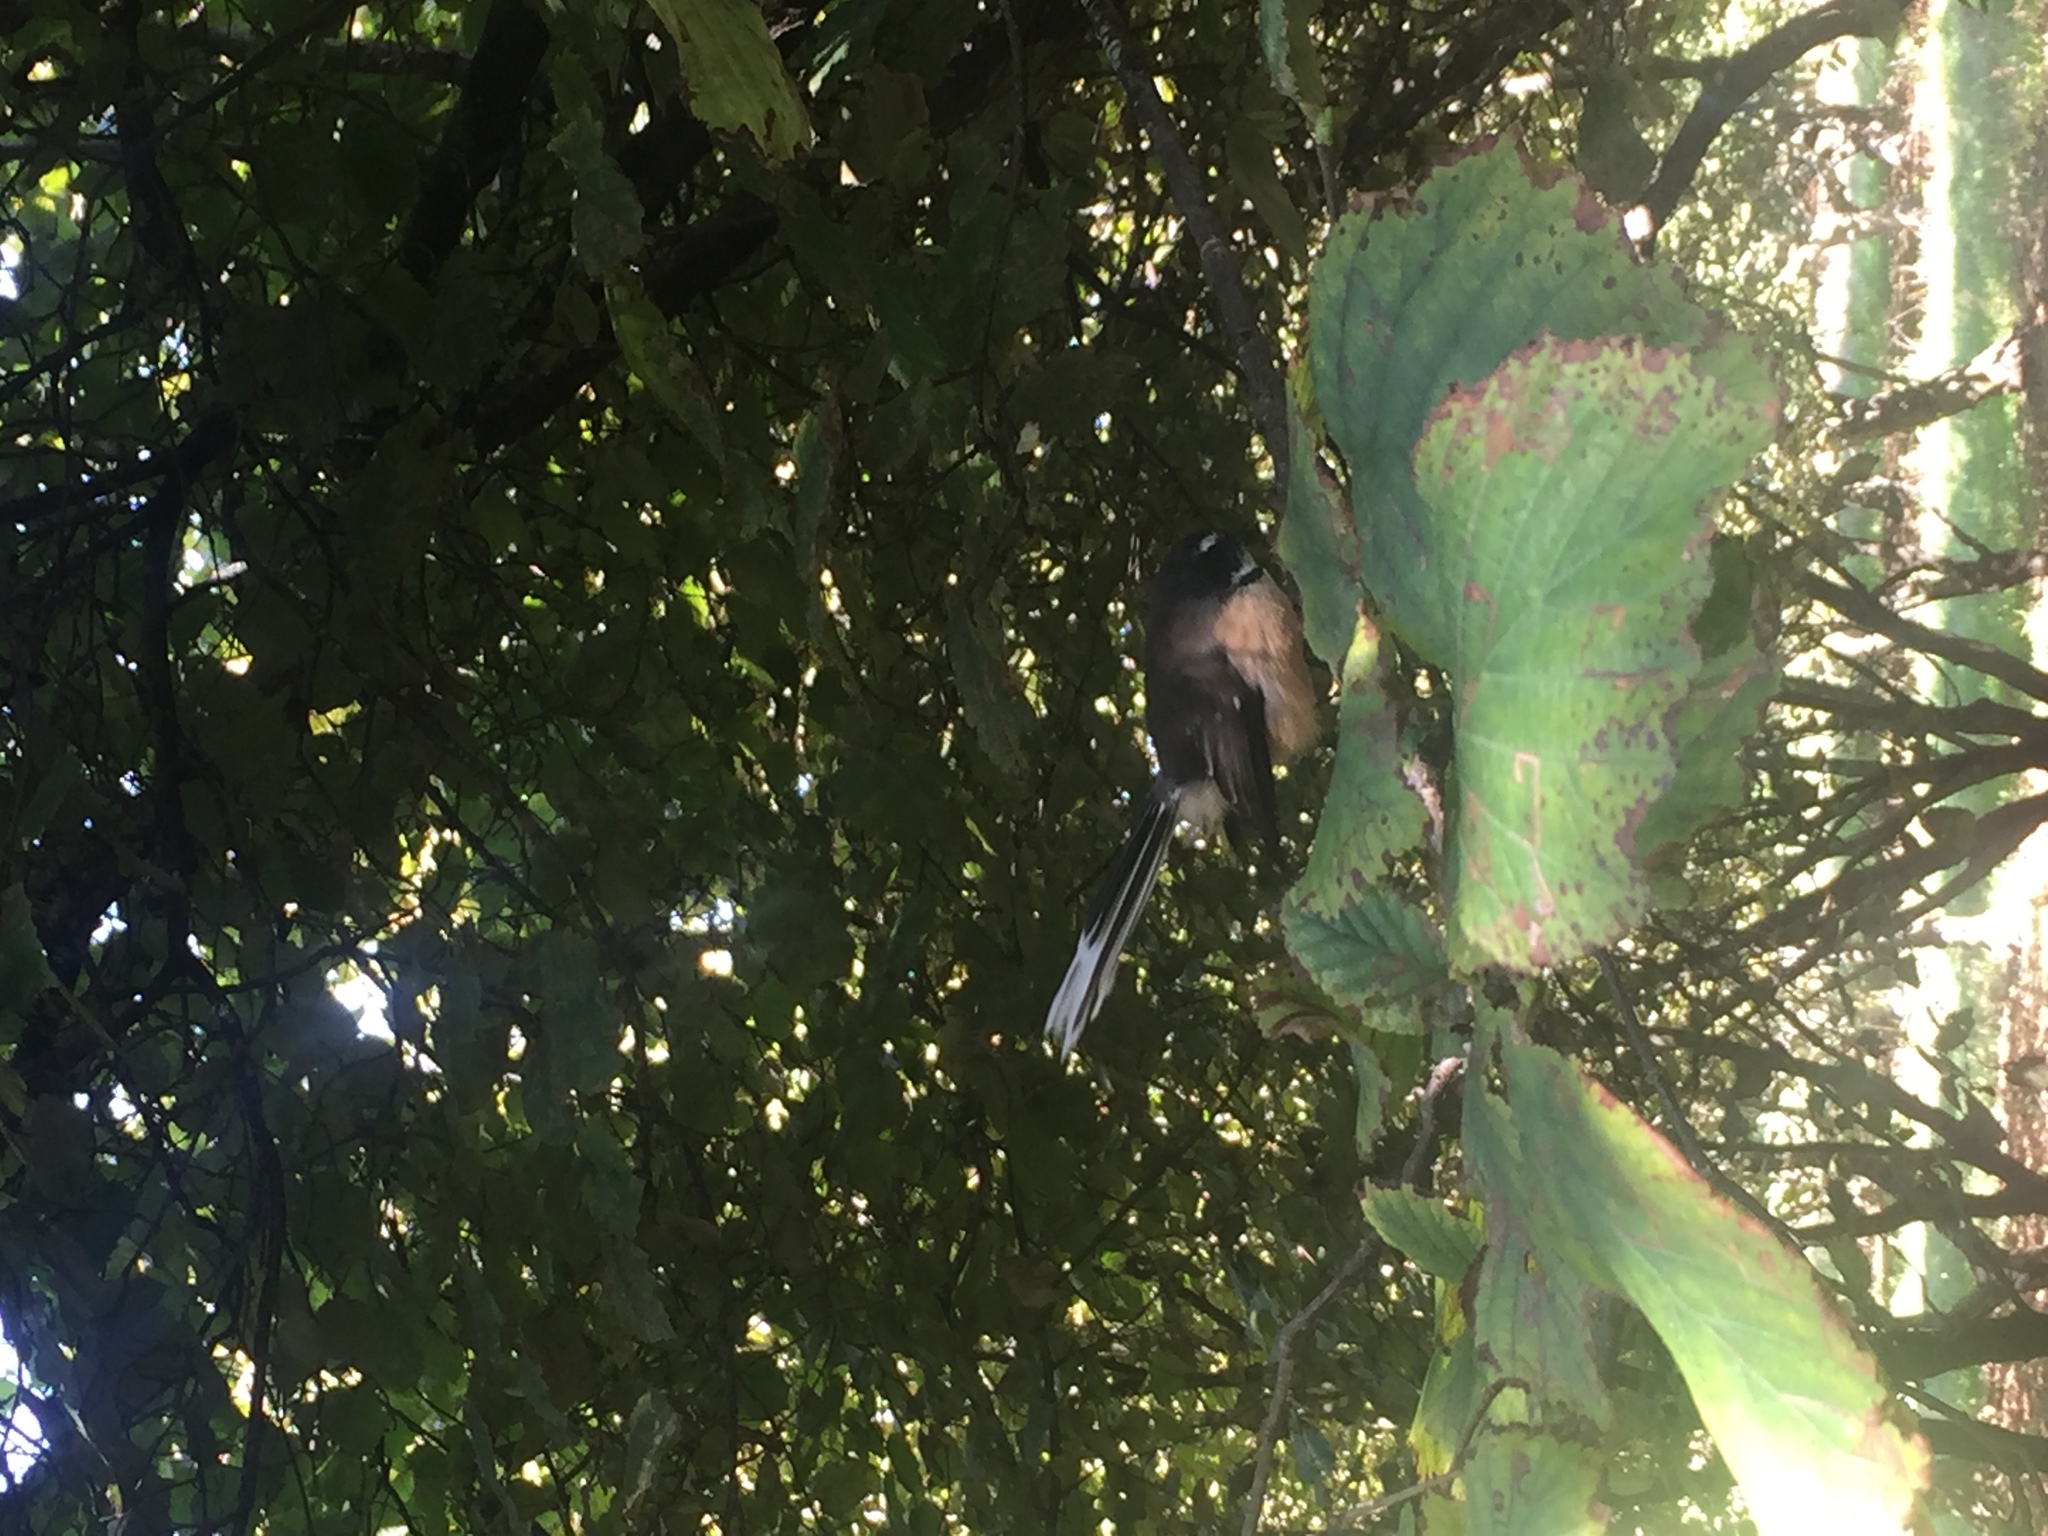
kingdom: Animalia
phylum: Chordata
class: Aves
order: Passeriformes
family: Rhipiduridae
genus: Rhipidura
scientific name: Rhipidura fuliginosa
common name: New zealand fantail
